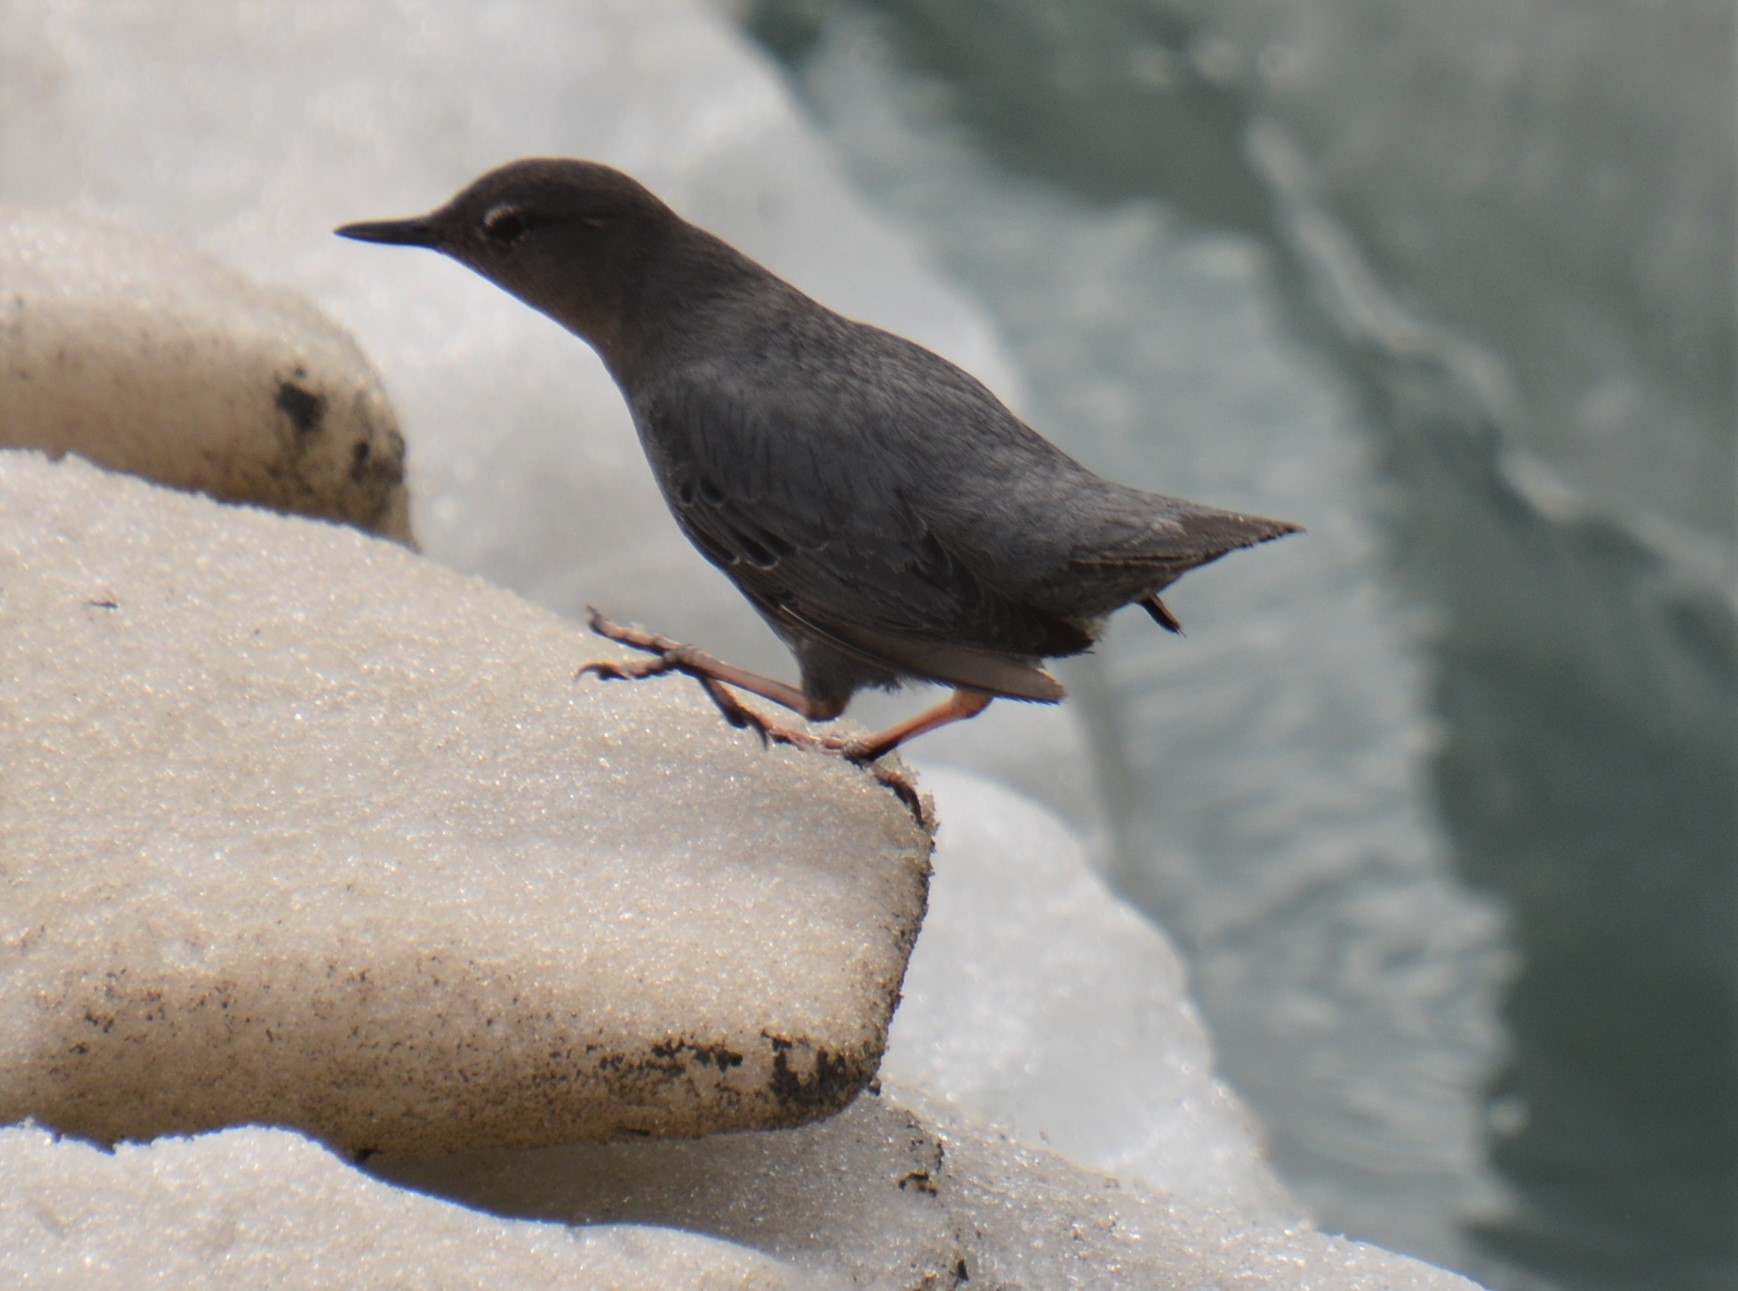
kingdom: Animalia
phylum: Chordata
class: Aves
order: Passeriformes
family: Cinclidae
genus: Cinclus
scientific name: Cinclus mexicanus
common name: American dipper
